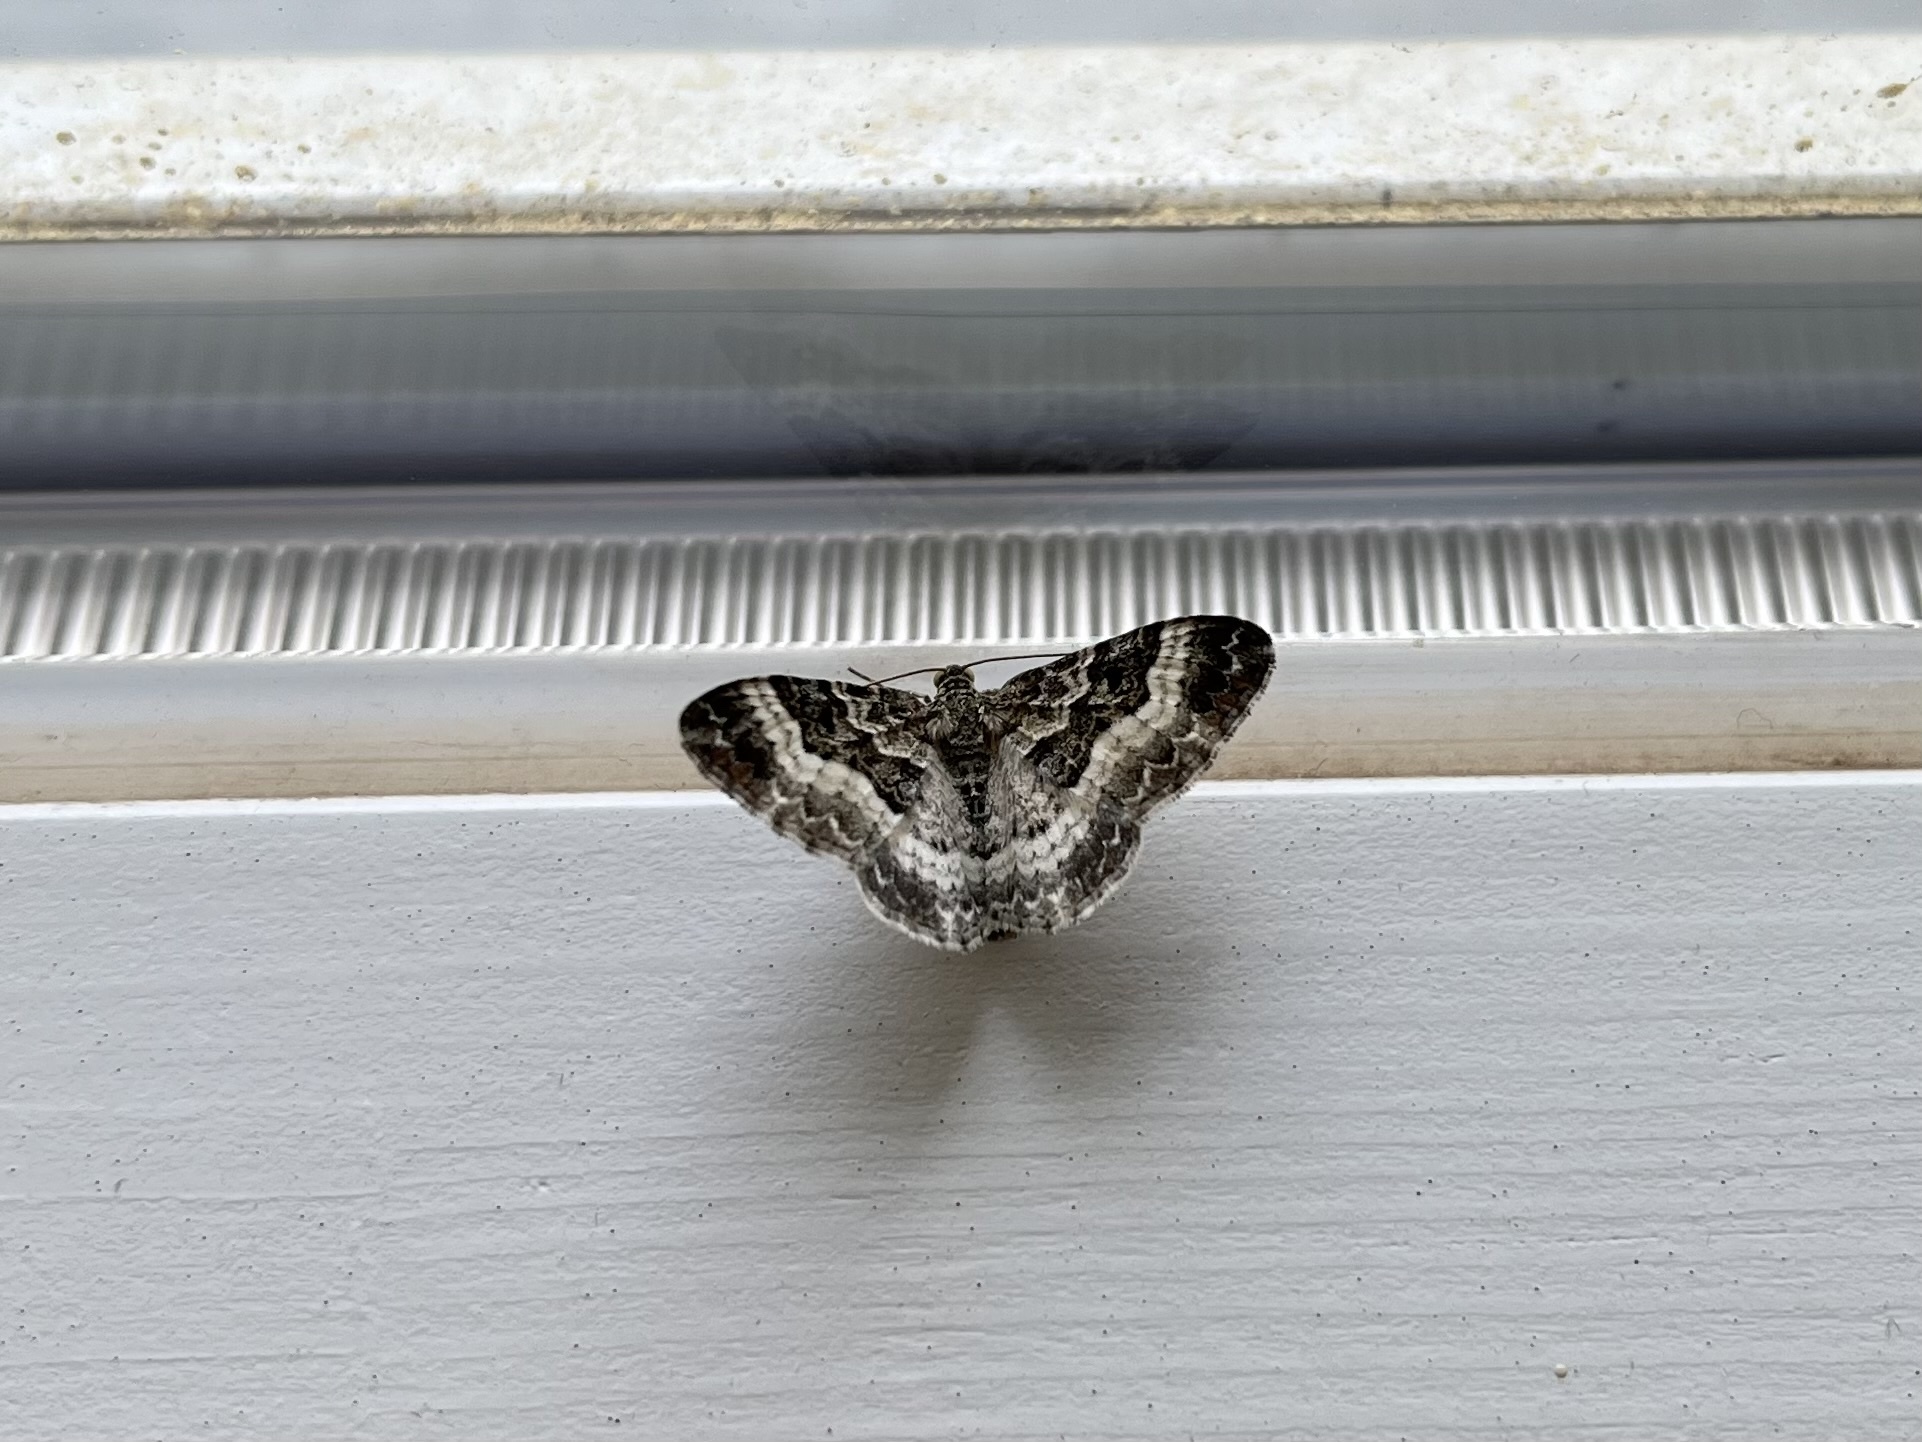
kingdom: Animalia
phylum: Arthropoda
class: Insecta
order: Lepidoptera
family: Geometridae
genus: Epirrhoe
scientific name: Epirrhoe alternata
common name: Common carpet
